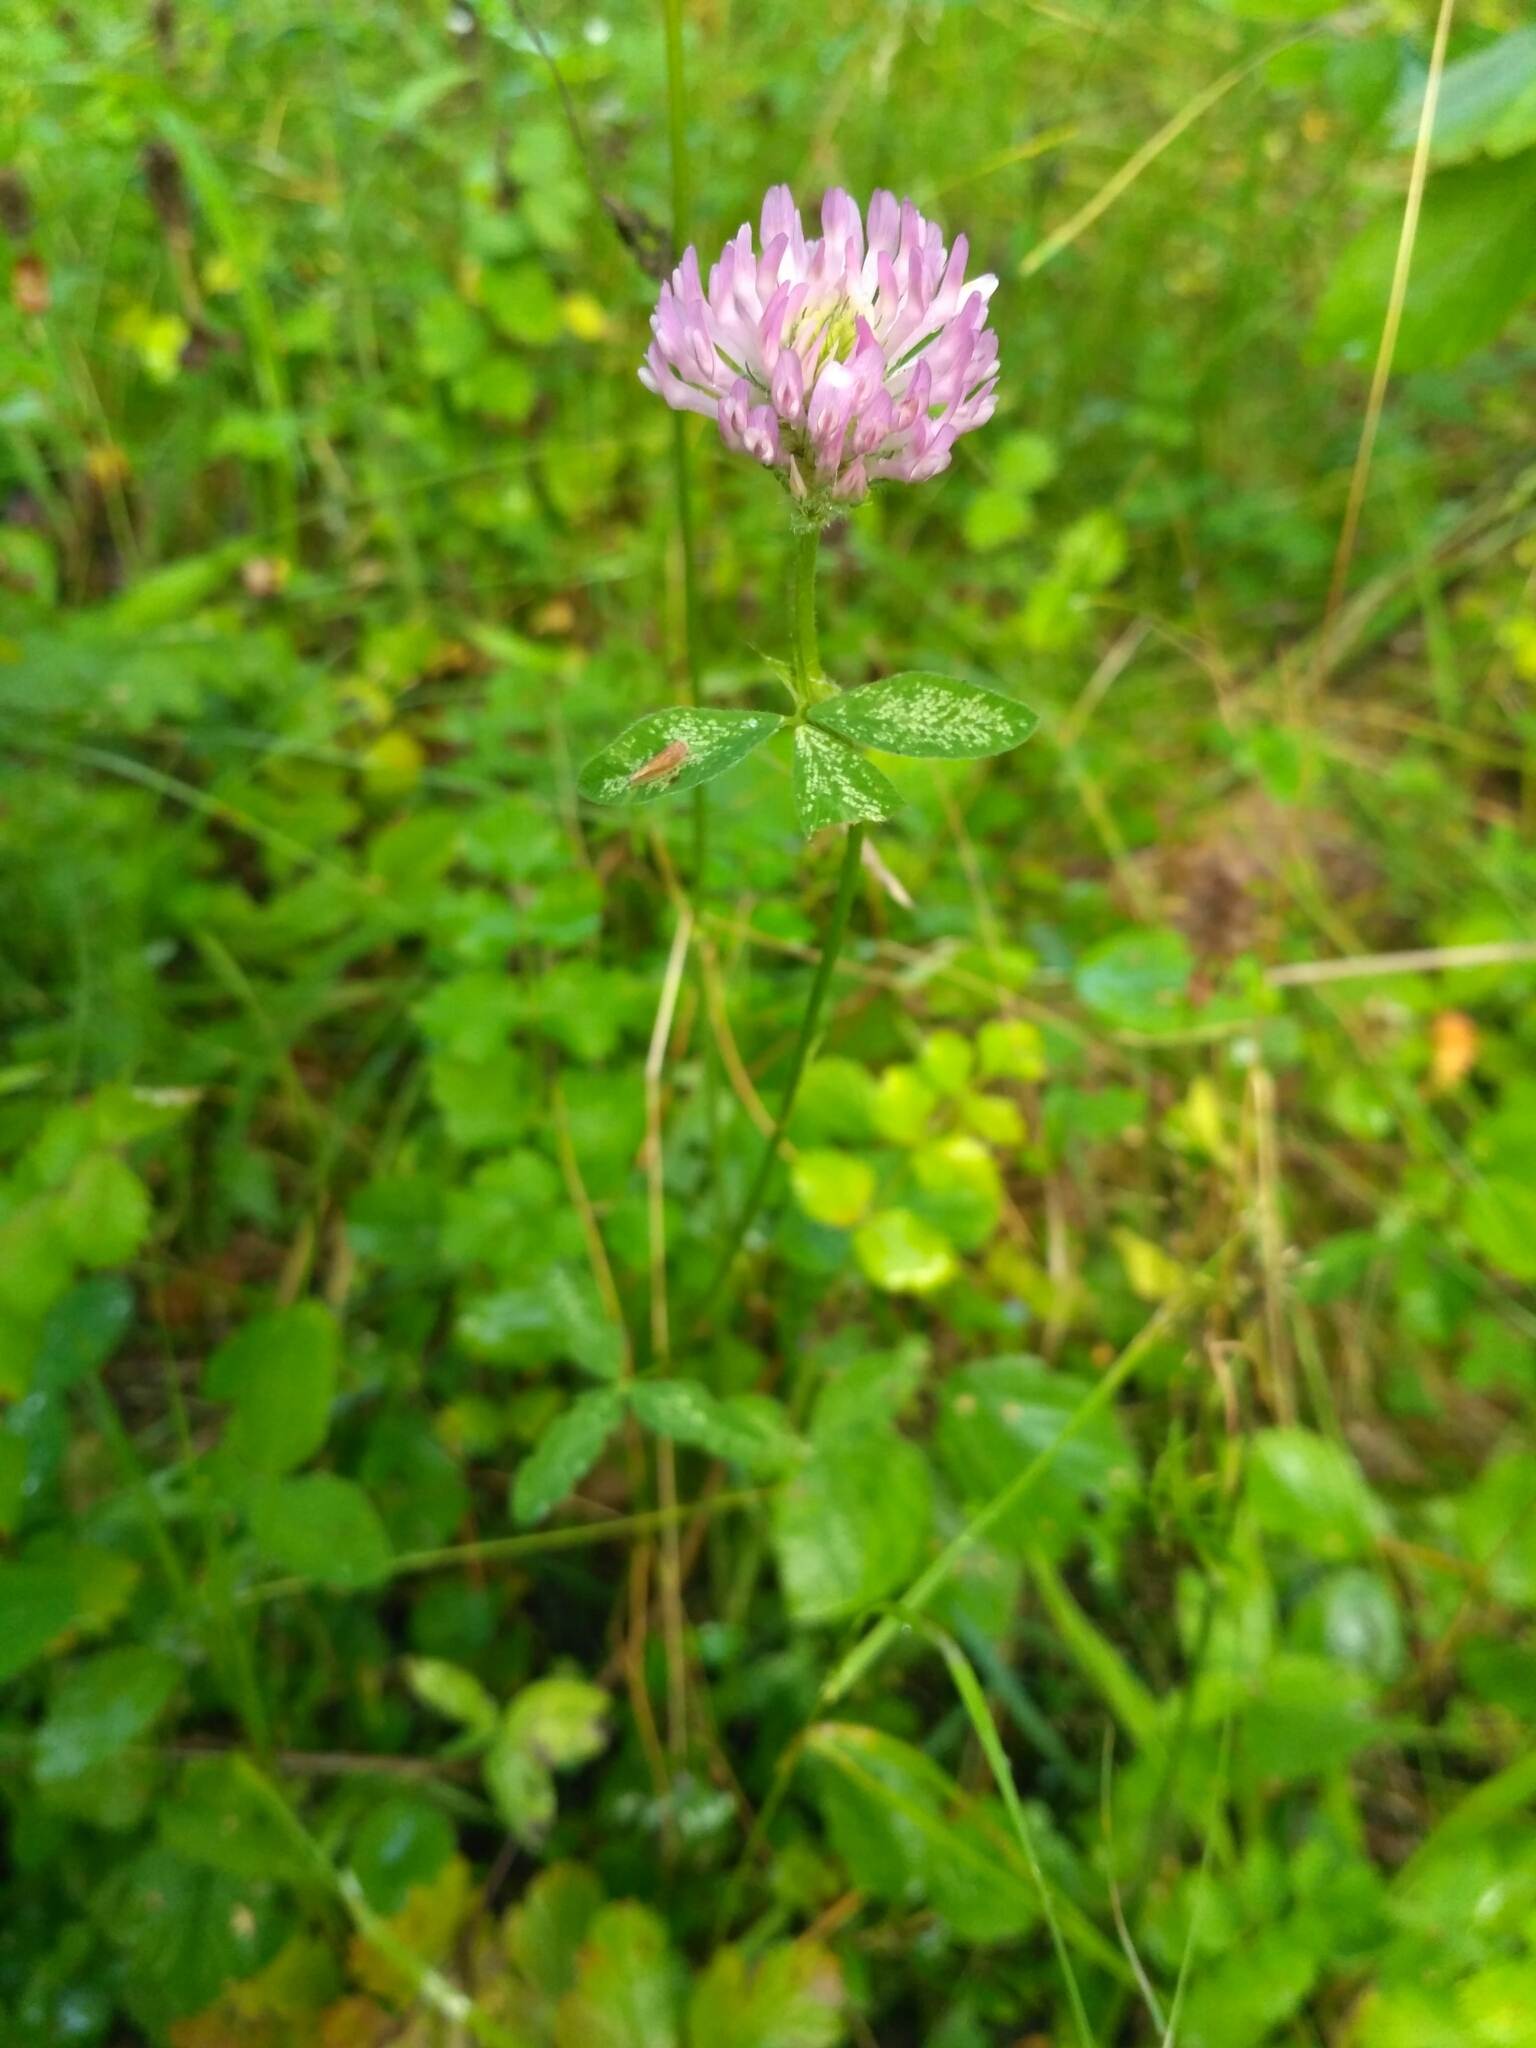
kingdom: Plantae
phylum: Tracheophyta
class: Magnoliopsida
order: Fabales
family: Fabaceae
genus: Trifolium
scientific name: Trifolium pratense
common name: Red clover
